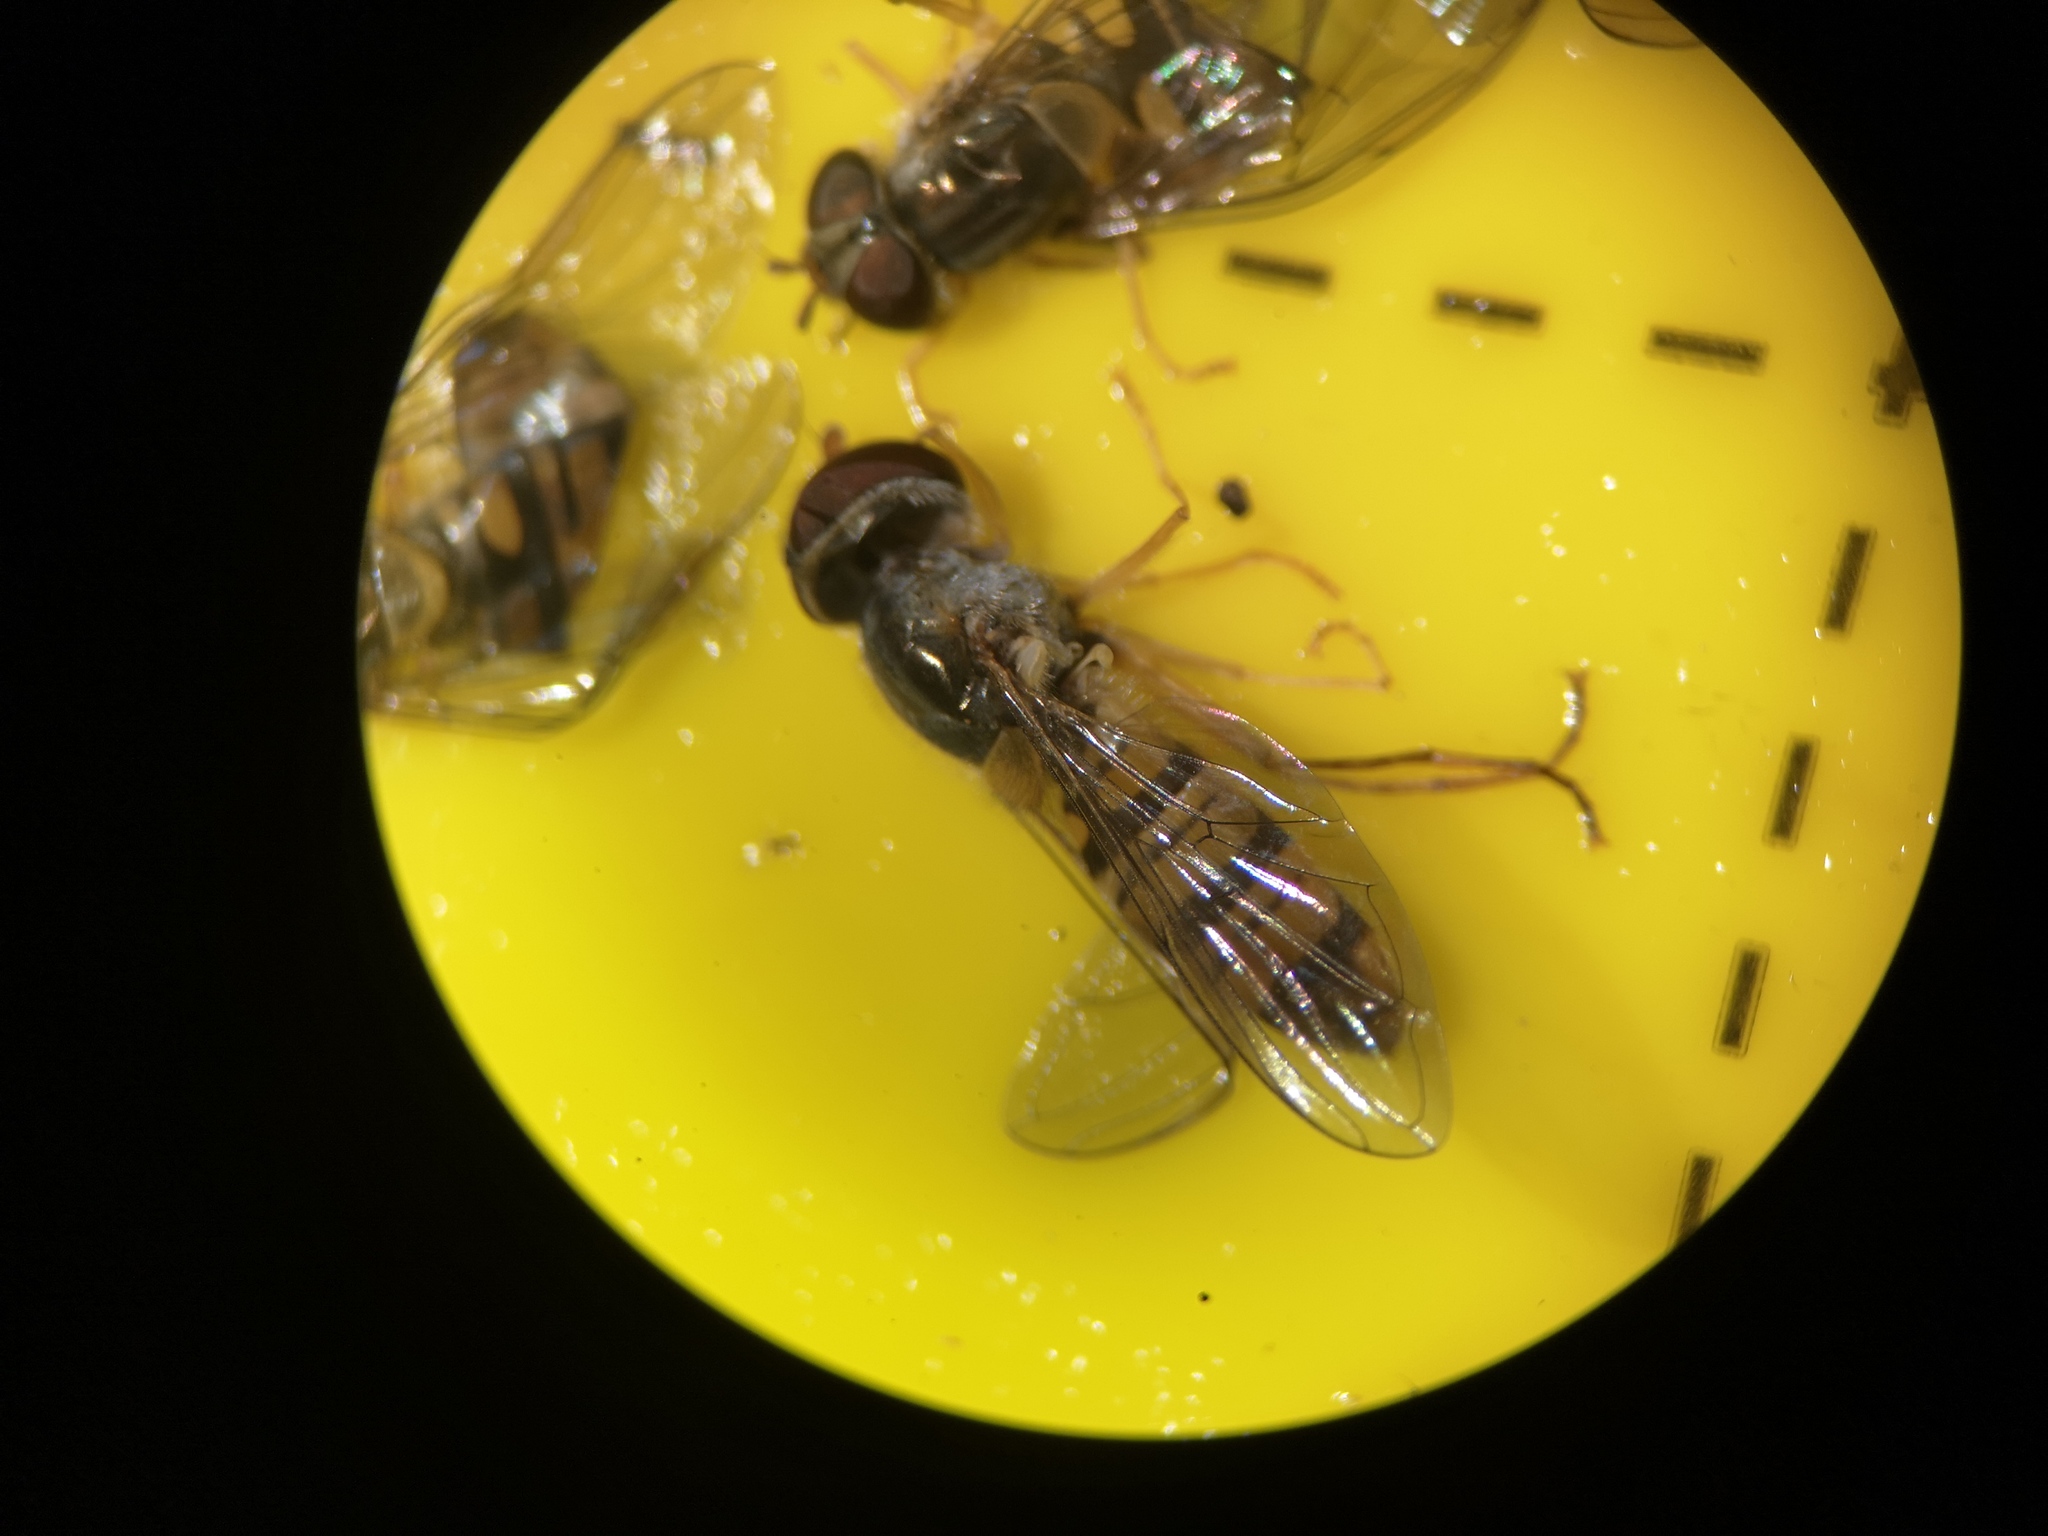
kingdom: Animalia
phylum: Arthropoda
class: Insecta
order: Diptera
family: Syrphidae
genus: Episyrphus
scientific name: Episyrphus balteatus
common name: Marmalade hoverfly
